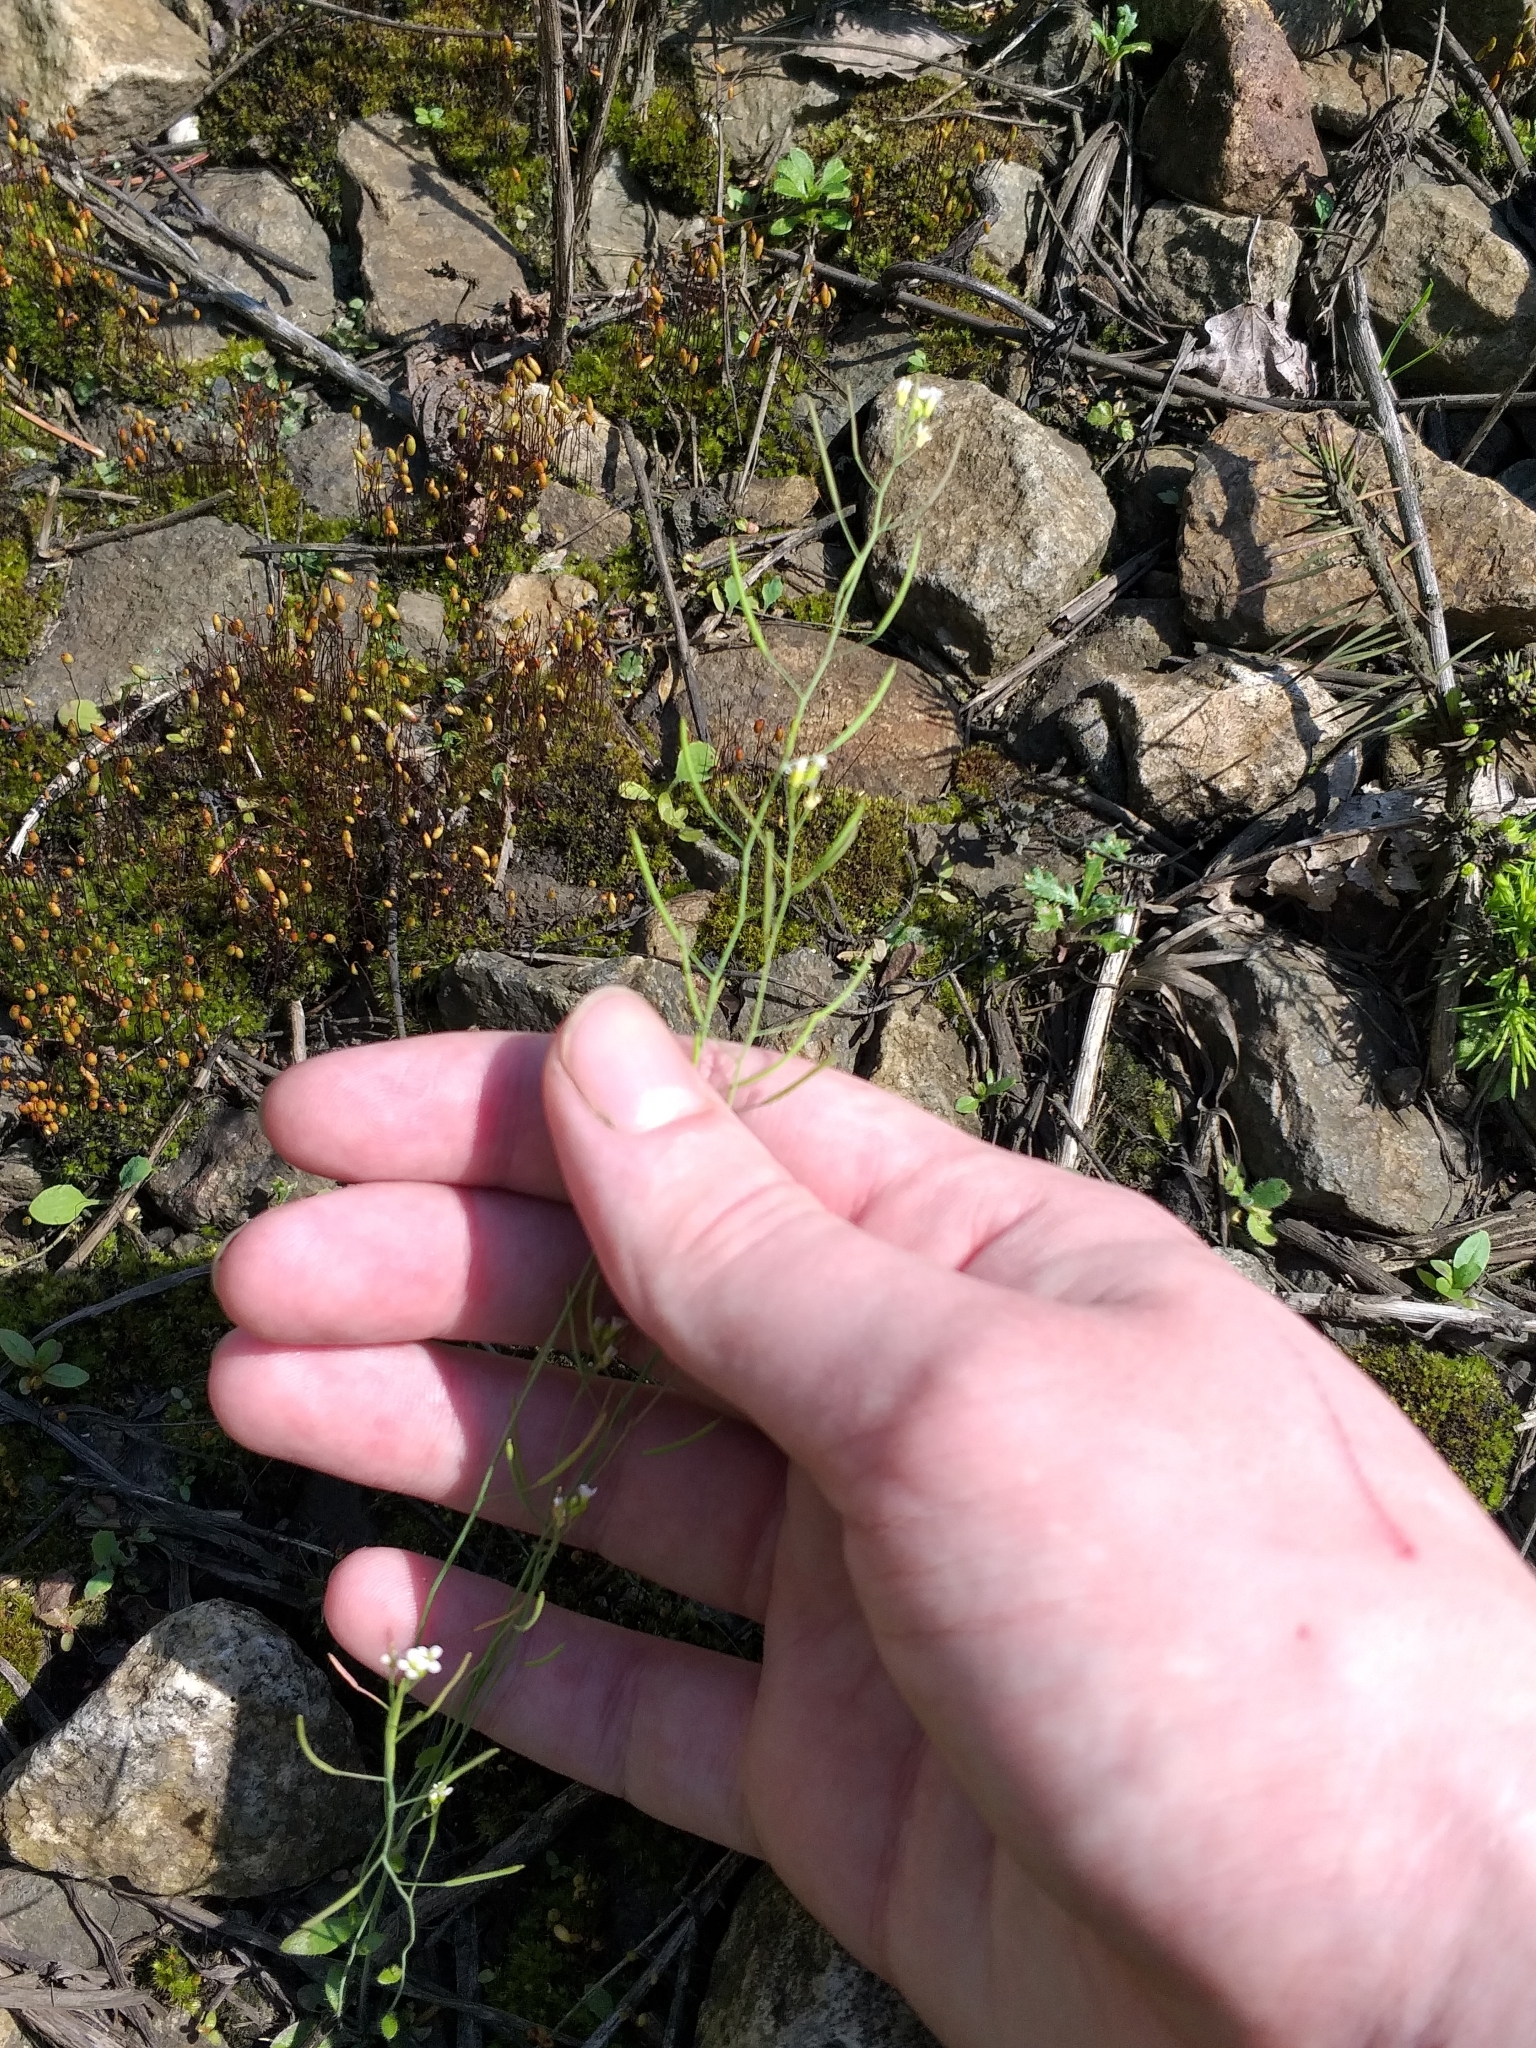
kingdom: Plantae
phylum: Tracheophyta
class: Magnoliopsida
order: Brassicales
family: Brassicaceae
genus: Arabidopsis
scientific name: Arabidopsis thaliana
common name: Thale cress
